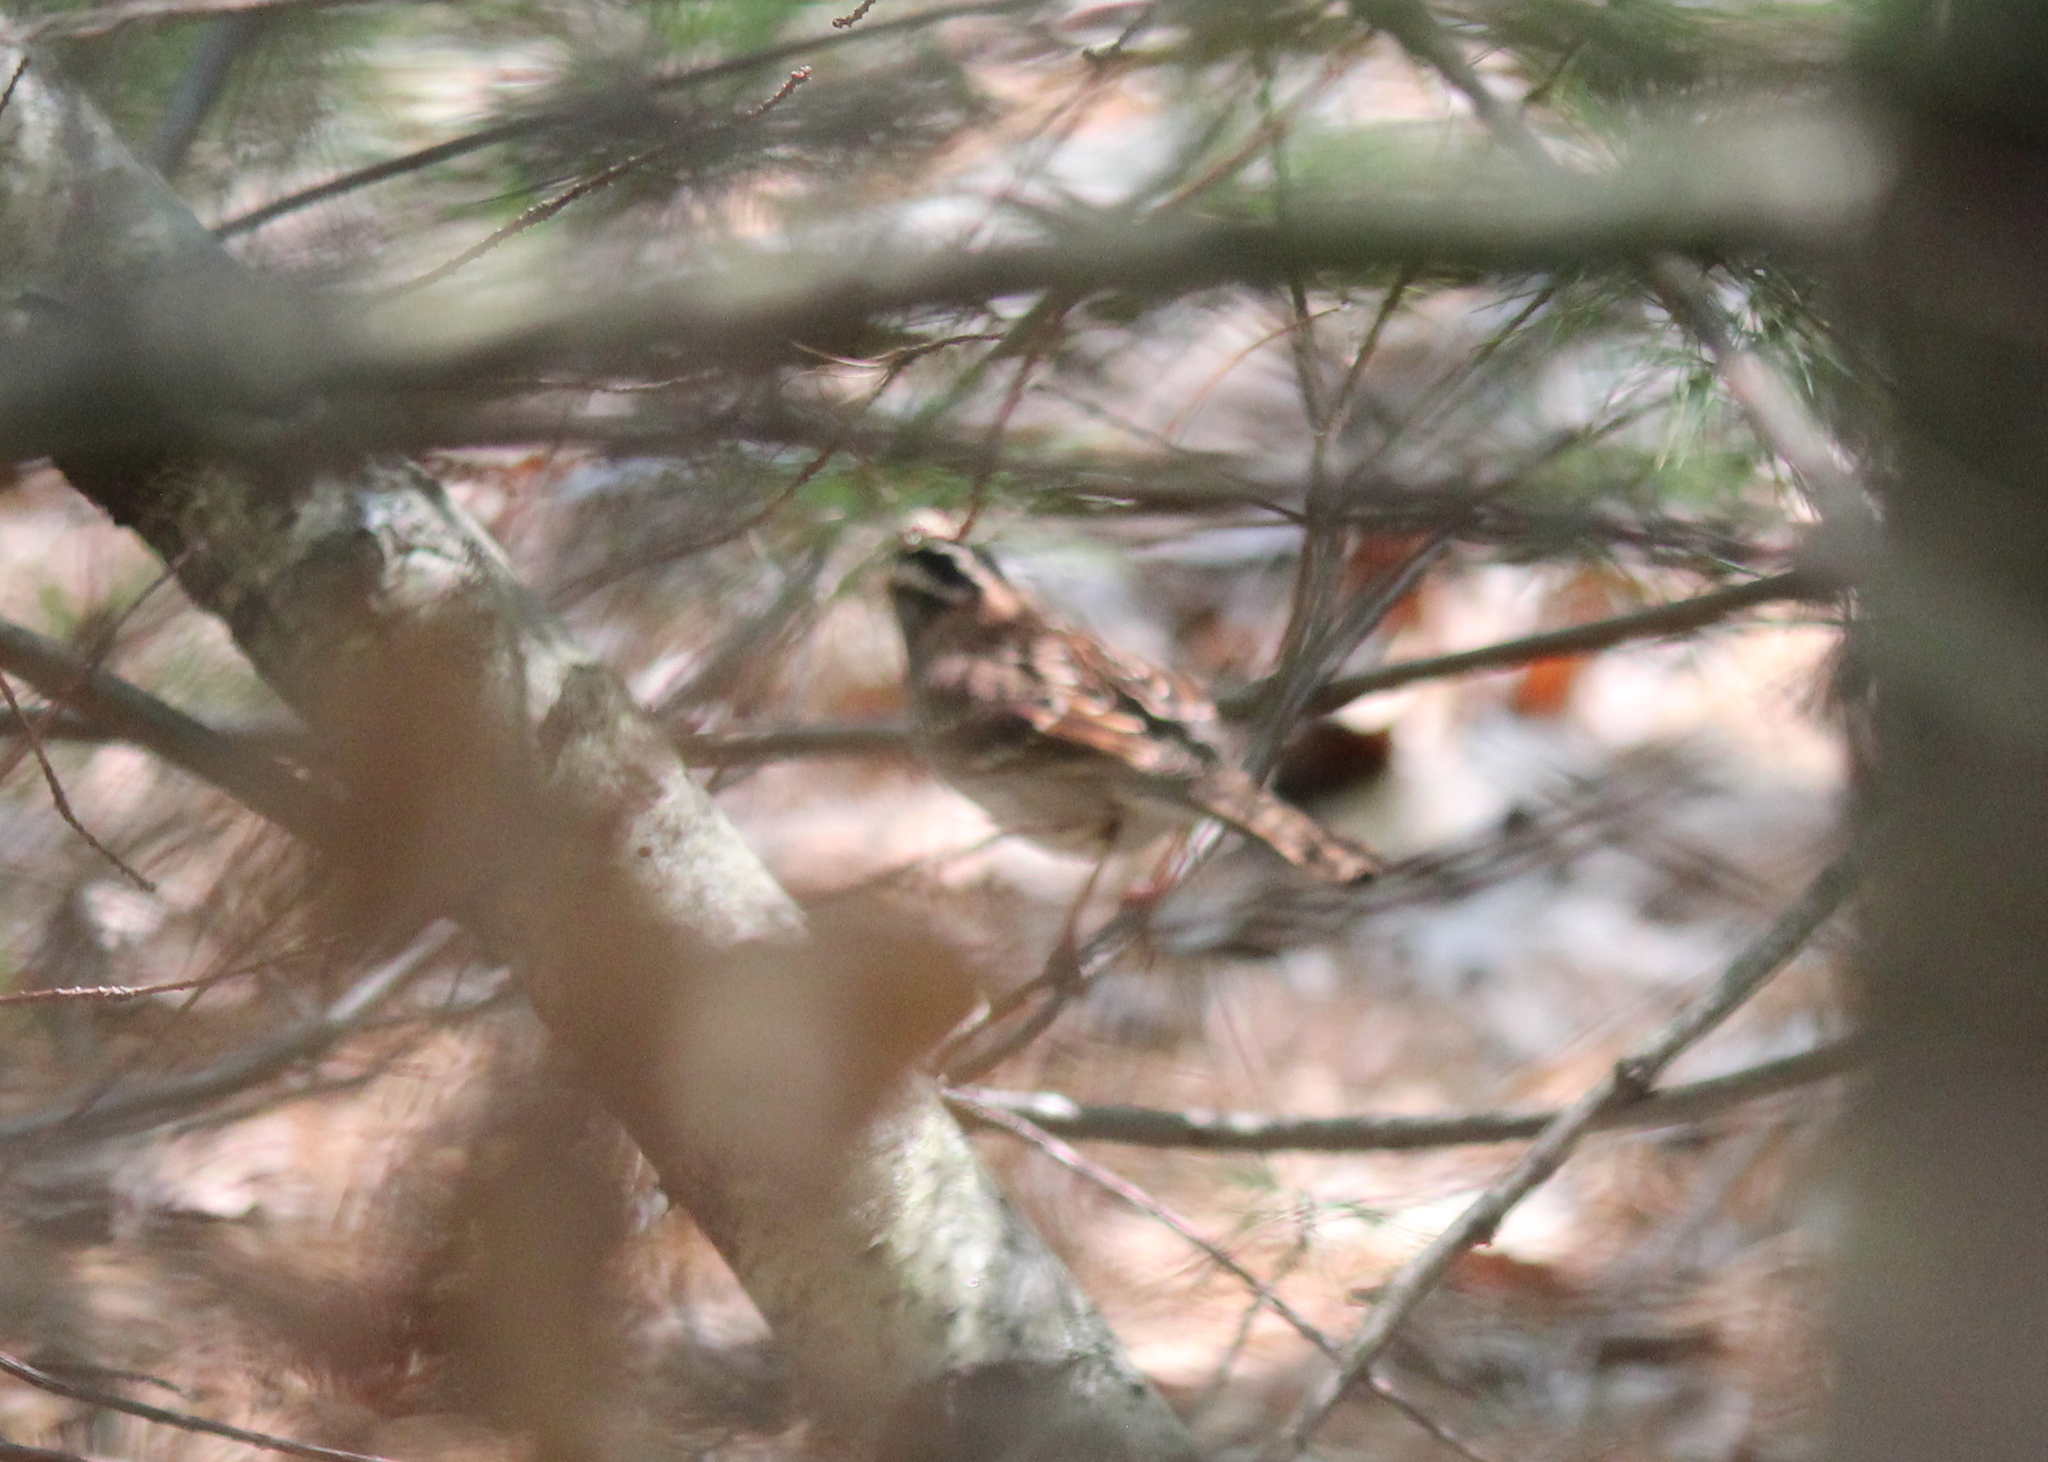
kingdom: Animalia
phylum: Chordata
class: Aves
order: Passeriformes
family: Passerellidae
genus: Zonotrichia
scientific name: Zonotrichia albicollis
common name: White-throated sparrow
